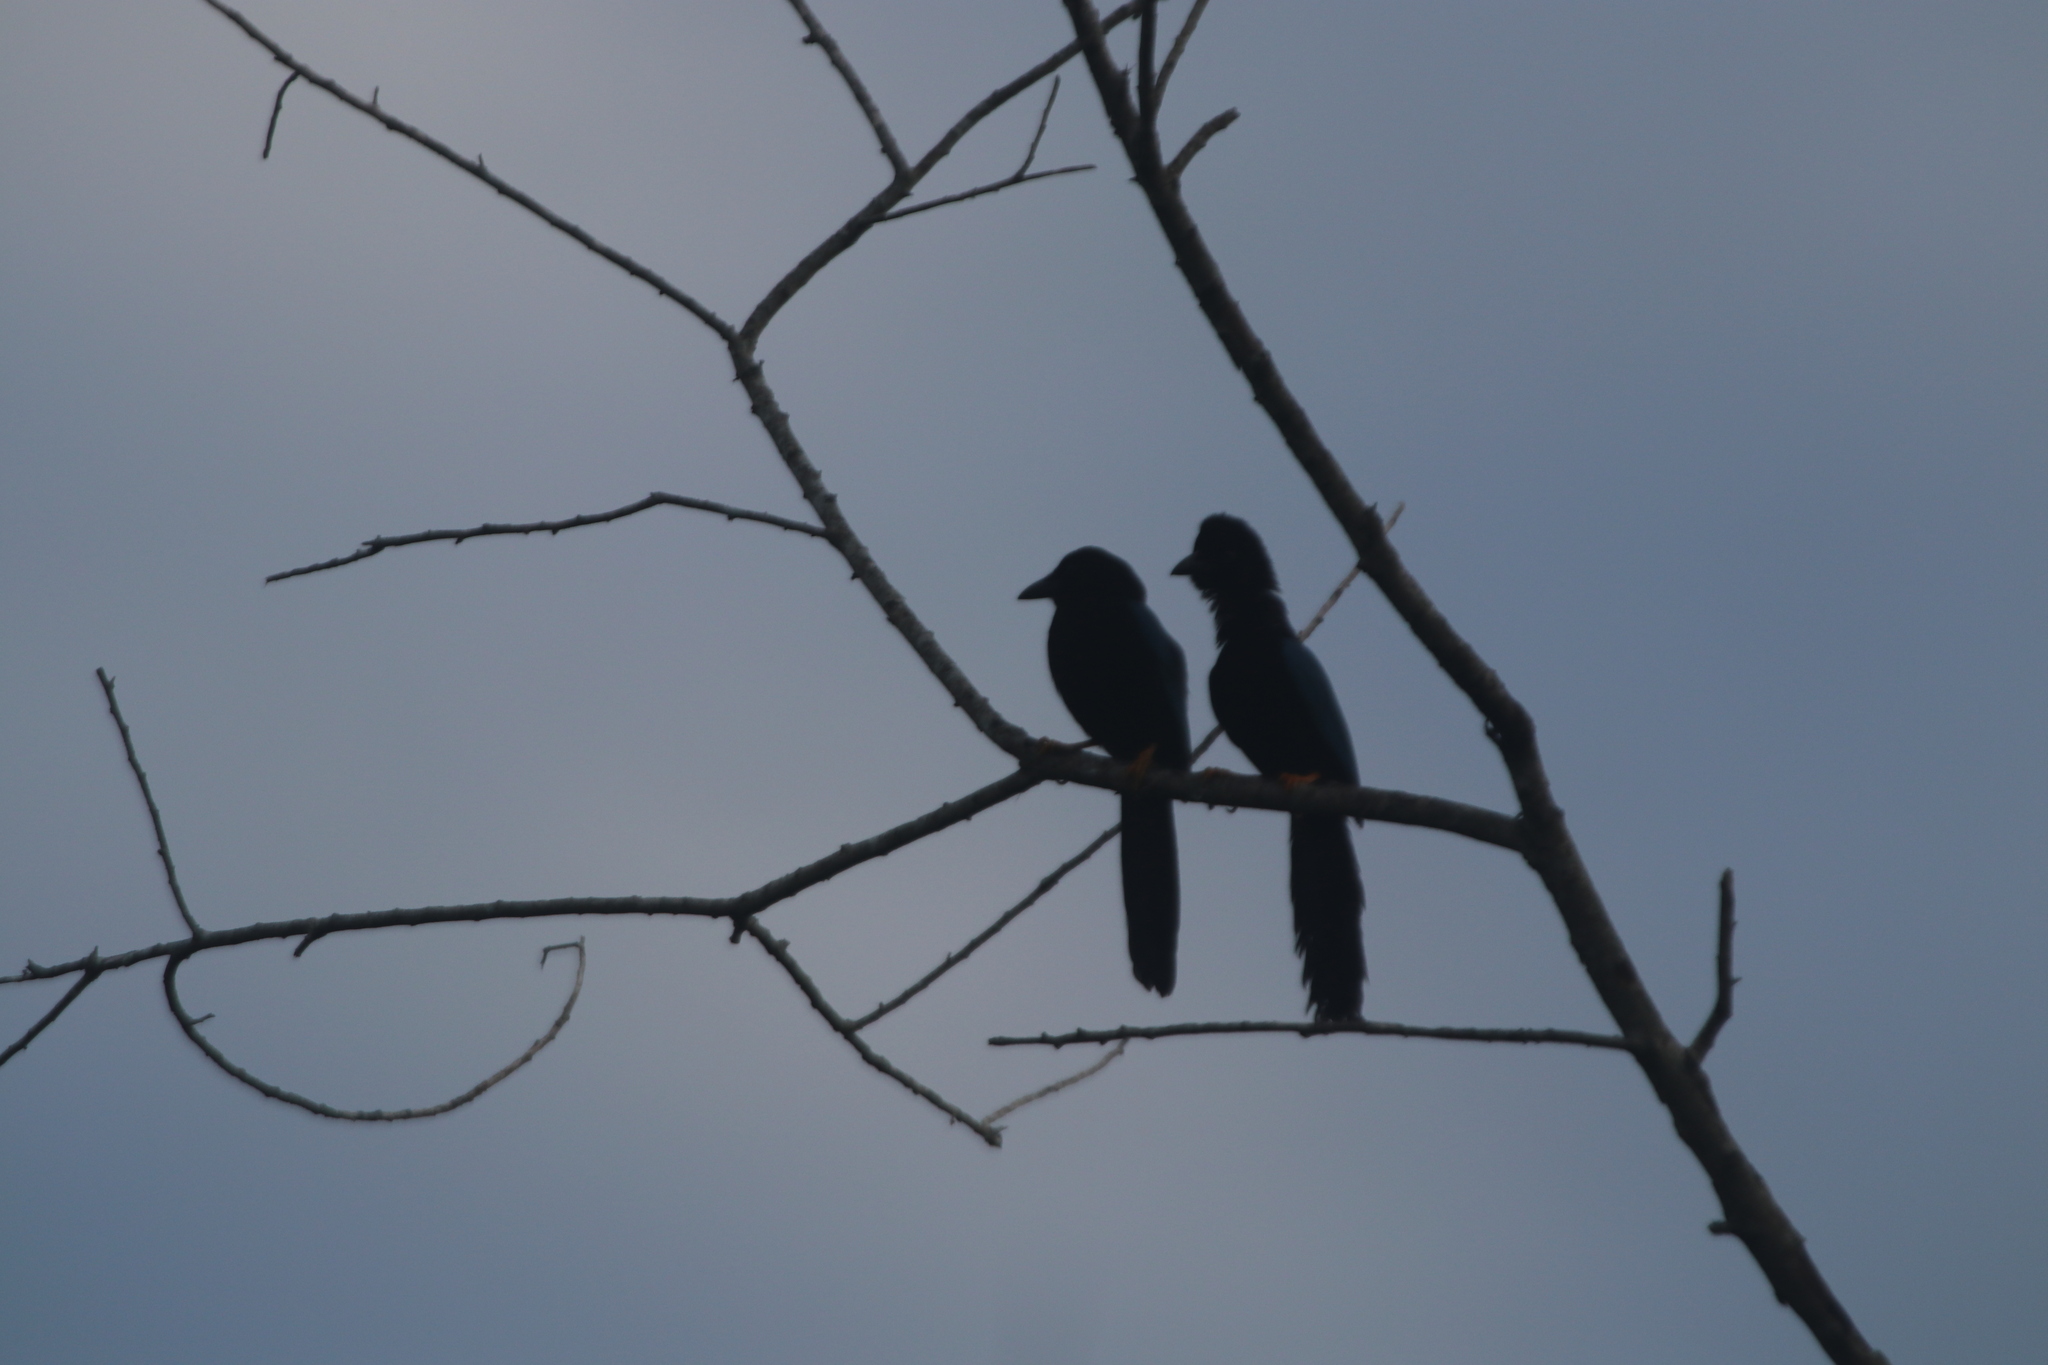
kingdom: Animalia
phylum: Chordata
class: Aves
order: Passeriformes
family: Corvidae
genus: Cyanocorax
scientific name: Cyanocorax yucatanicus
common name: Yucatan jay
